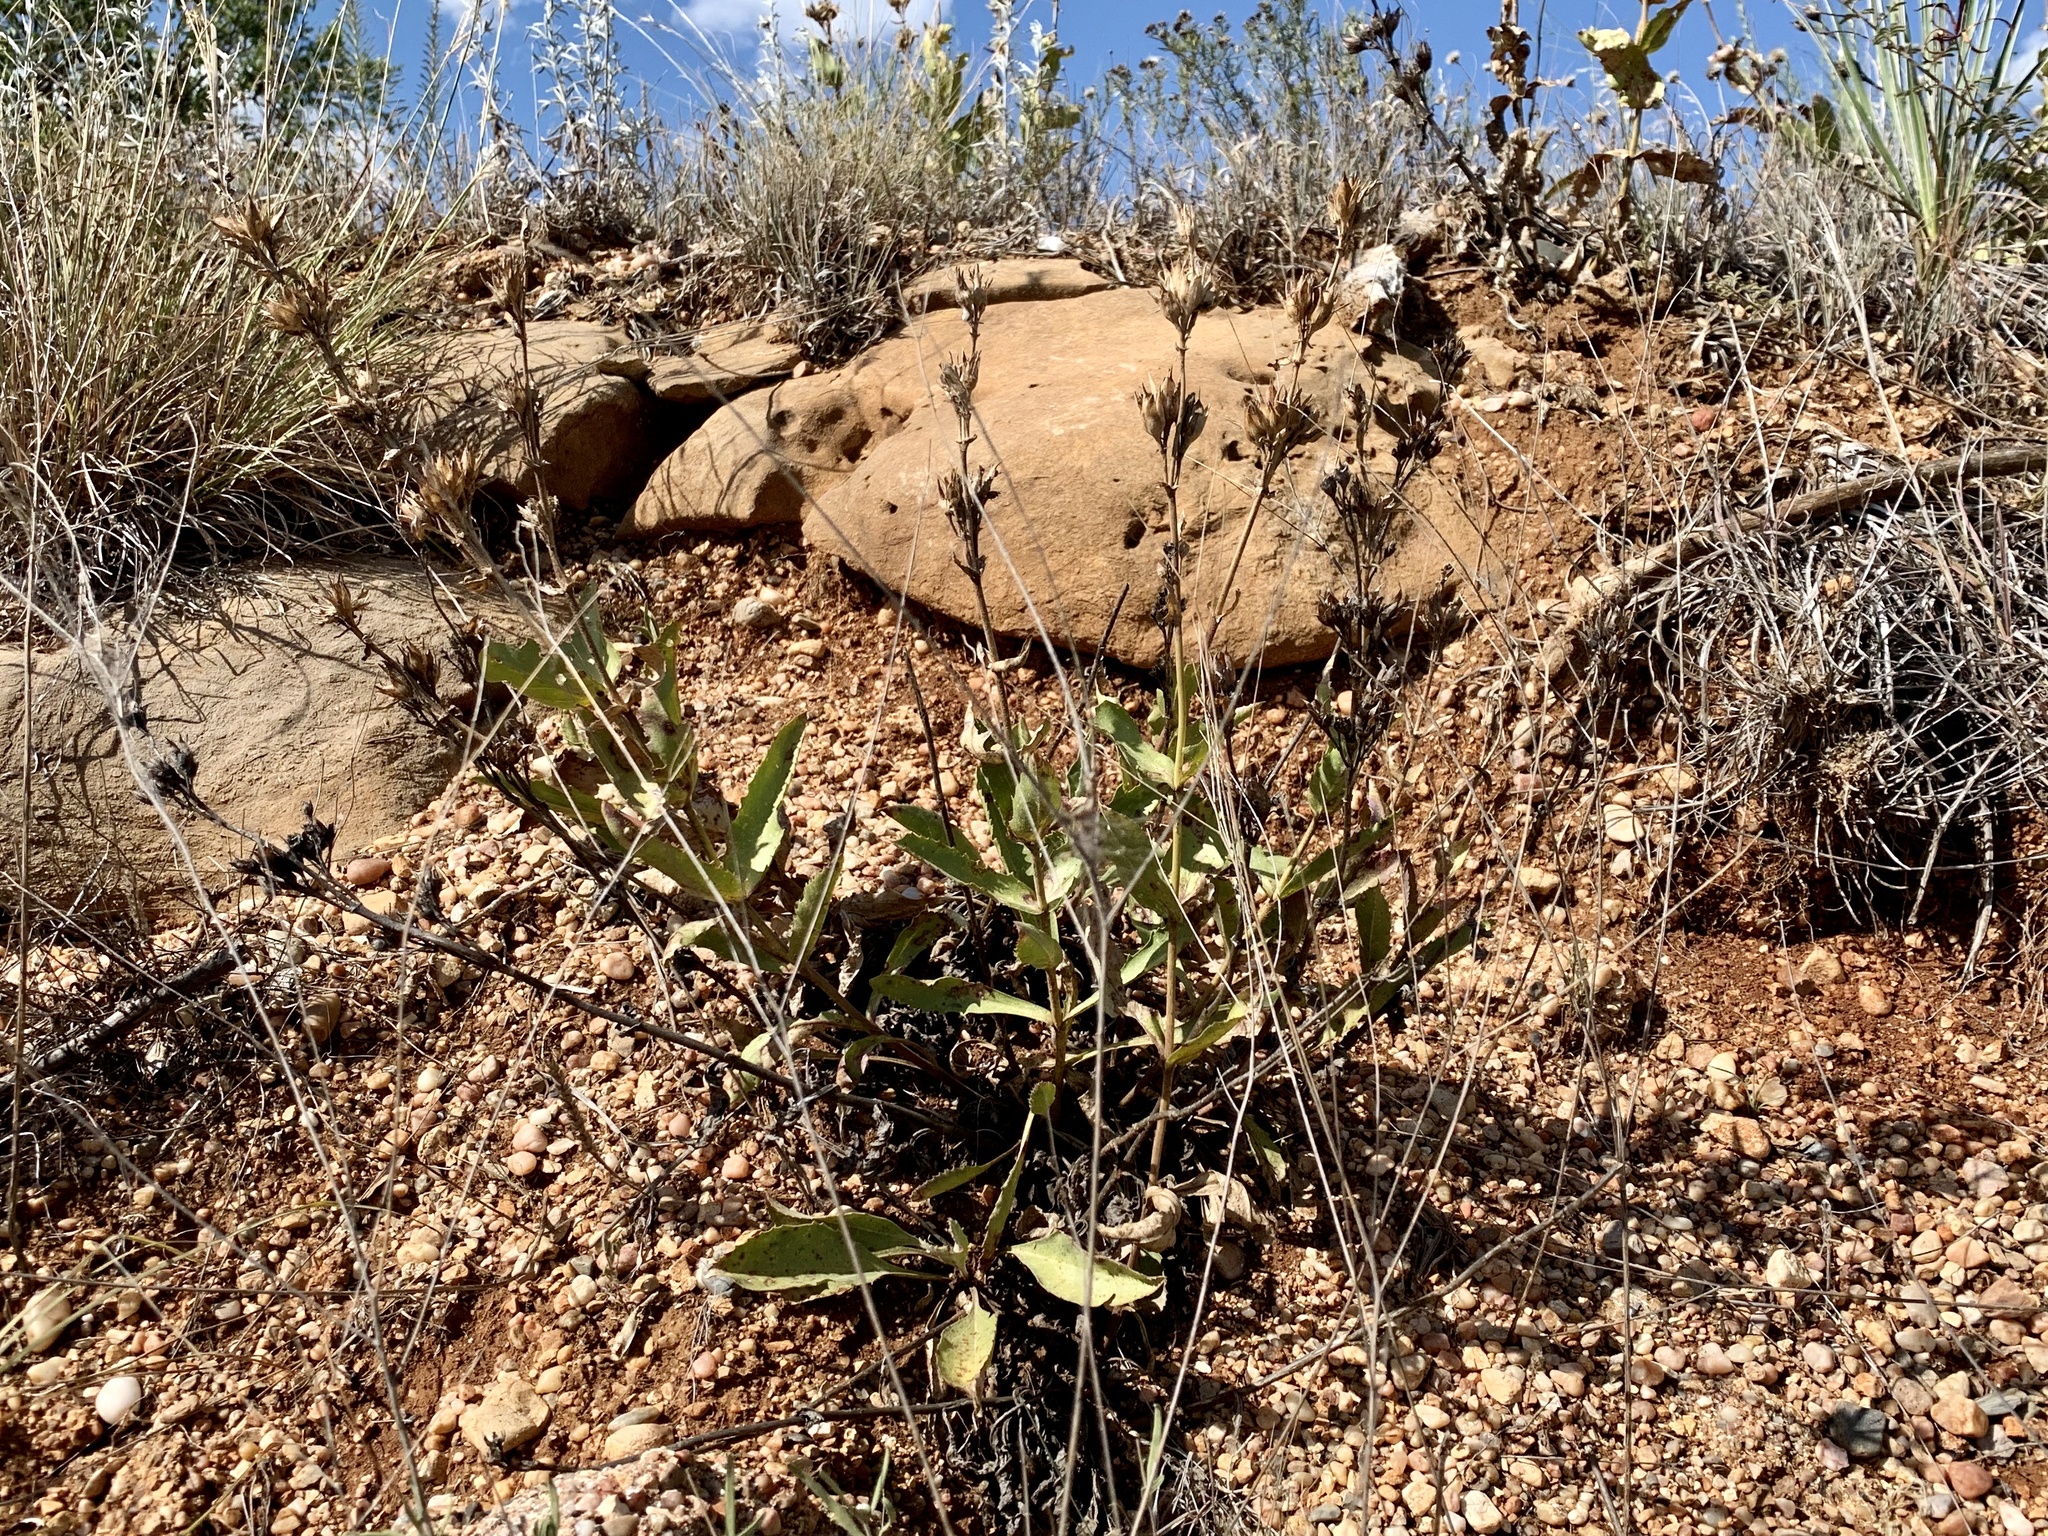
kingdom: Plantae
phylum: Tracheophyta
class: Magnoliopsida
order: Lamiales
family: Plantaginaceae
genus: Penstemon
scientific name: Penstemon cobaea
